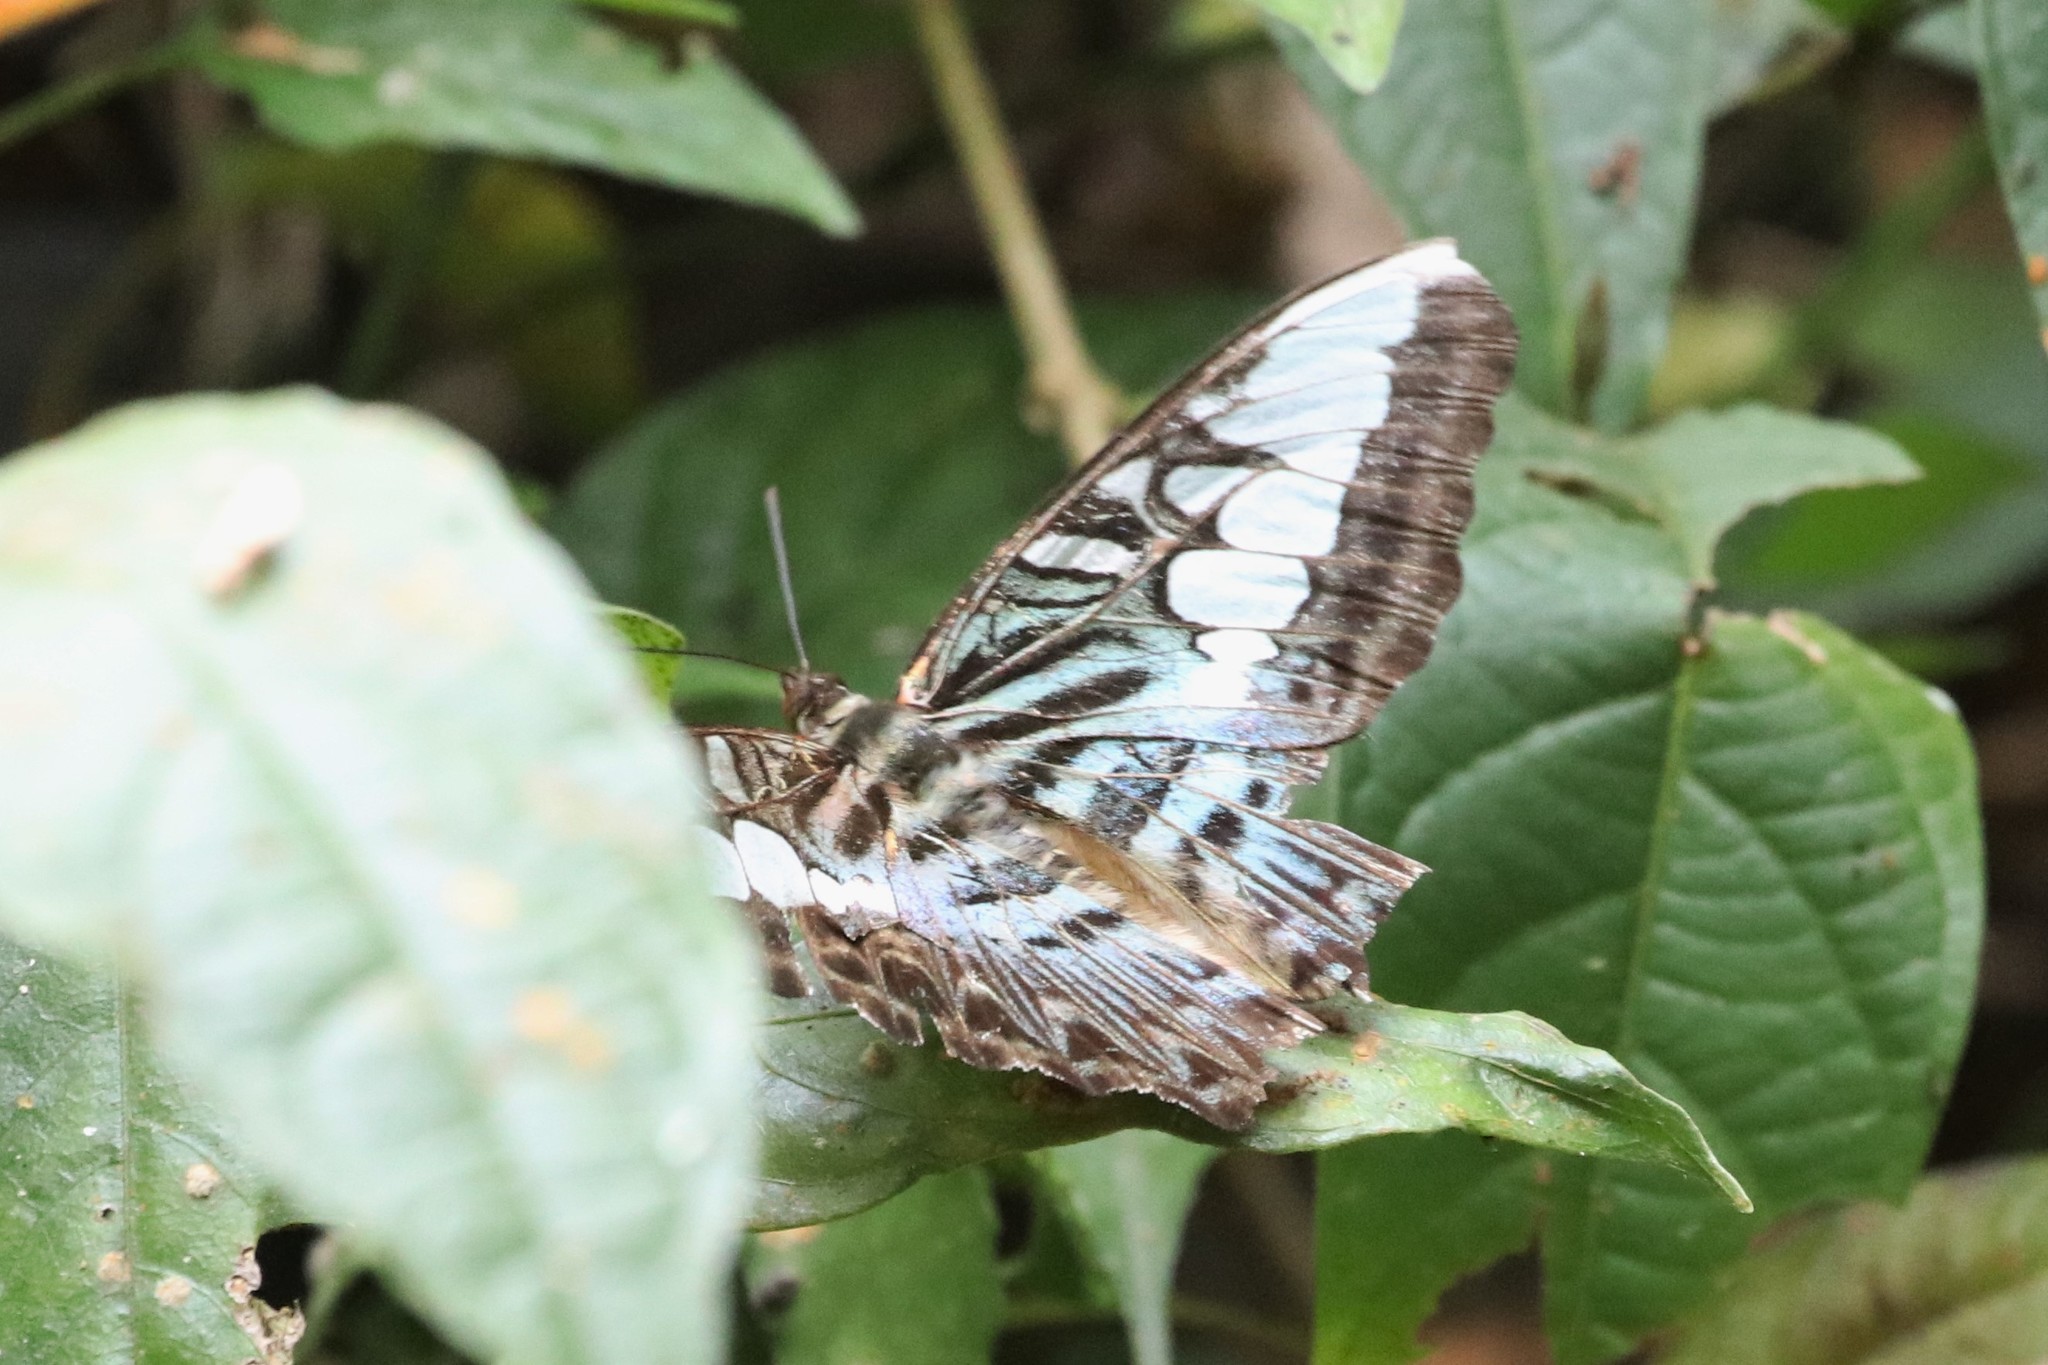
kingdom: Animalia
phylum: Arthropoda
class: Insecta
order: Lepidoptera
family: Nymphalidae
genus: Kallima
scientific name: Kallima sylvia
